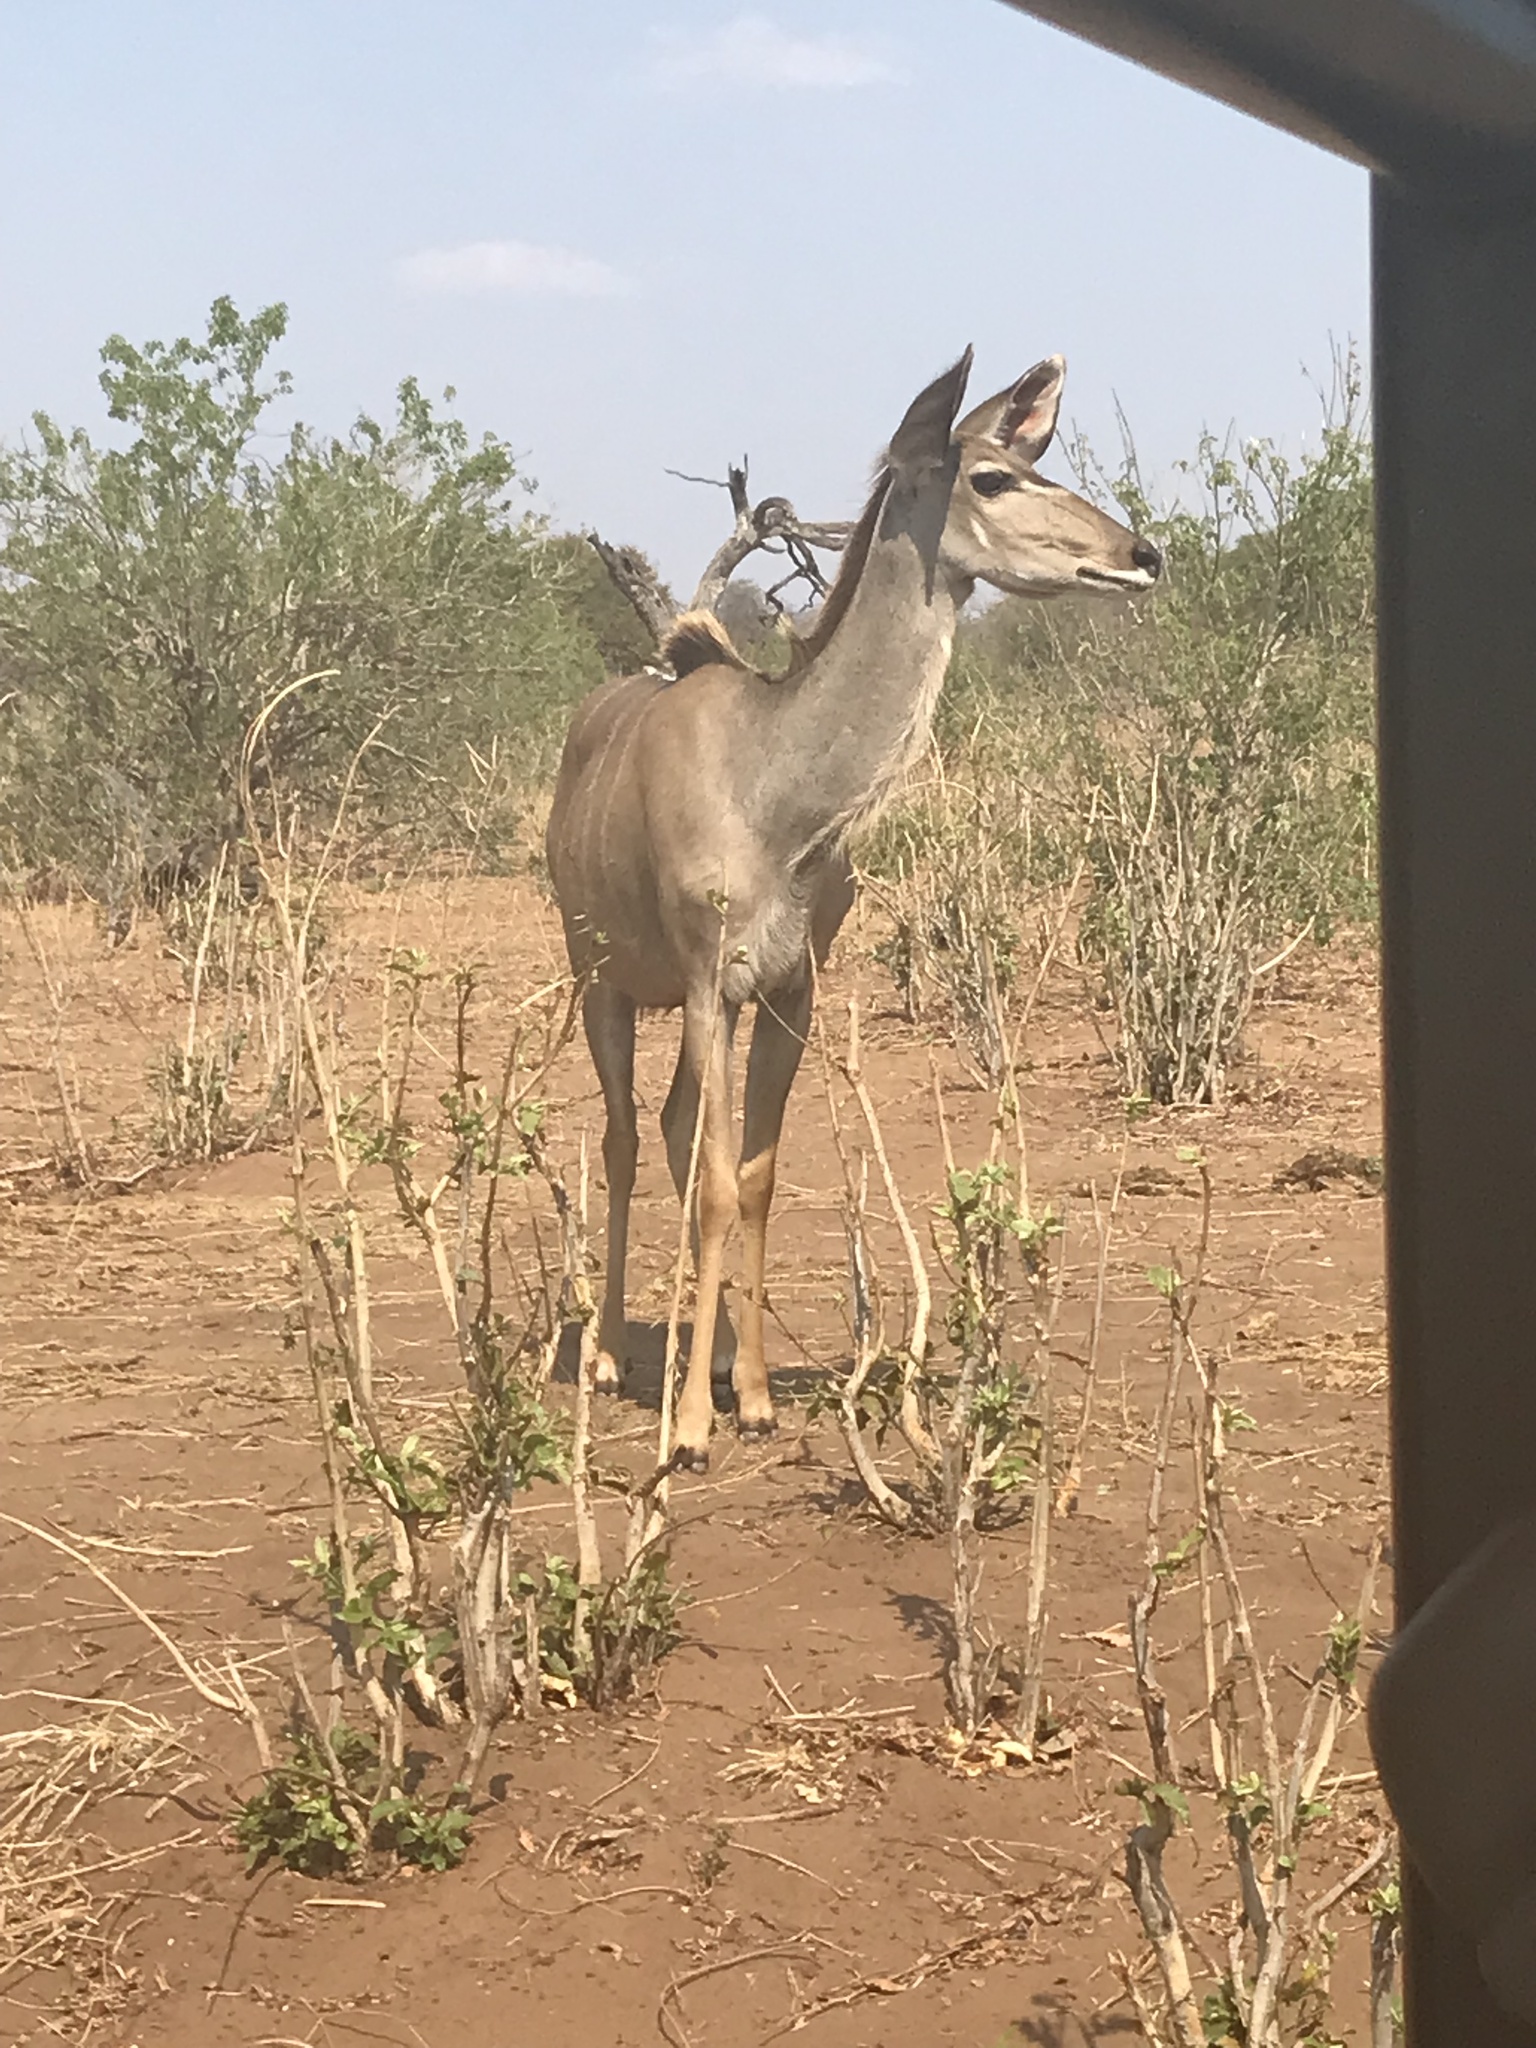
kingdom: Animalia
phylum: Chordata
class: Mammalia
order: Artiodactyla
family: Bovidae
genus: Tragelaphus
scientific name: Tragelaphus strepsiceros
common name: Greater kudu
